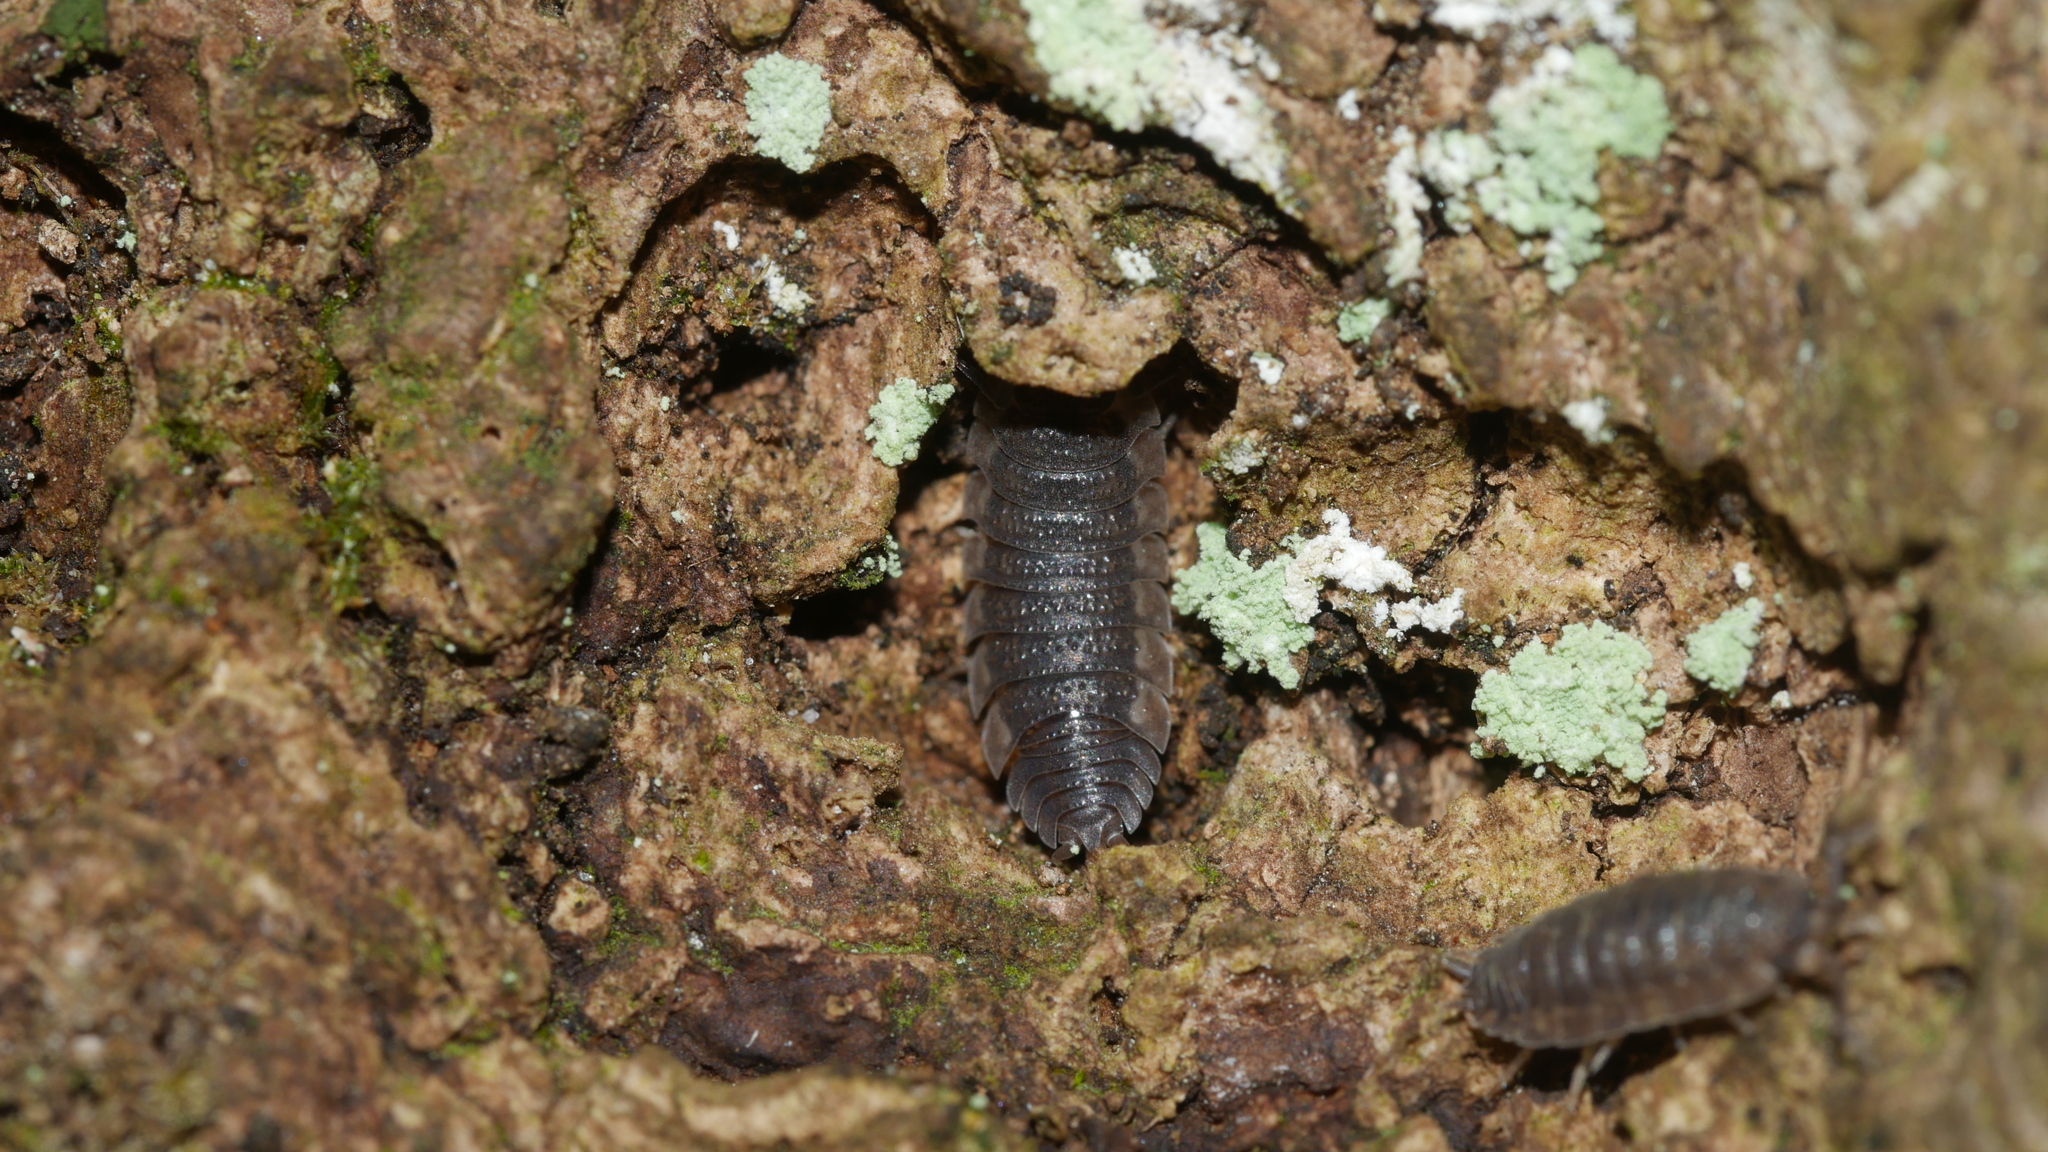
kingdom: Animalia
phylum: Arthropoda
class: Malacostraca
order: Isopoda
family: Porcellionidae
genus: Porcellio
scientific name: Porcellio scaber
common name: Common rough woodlouse
